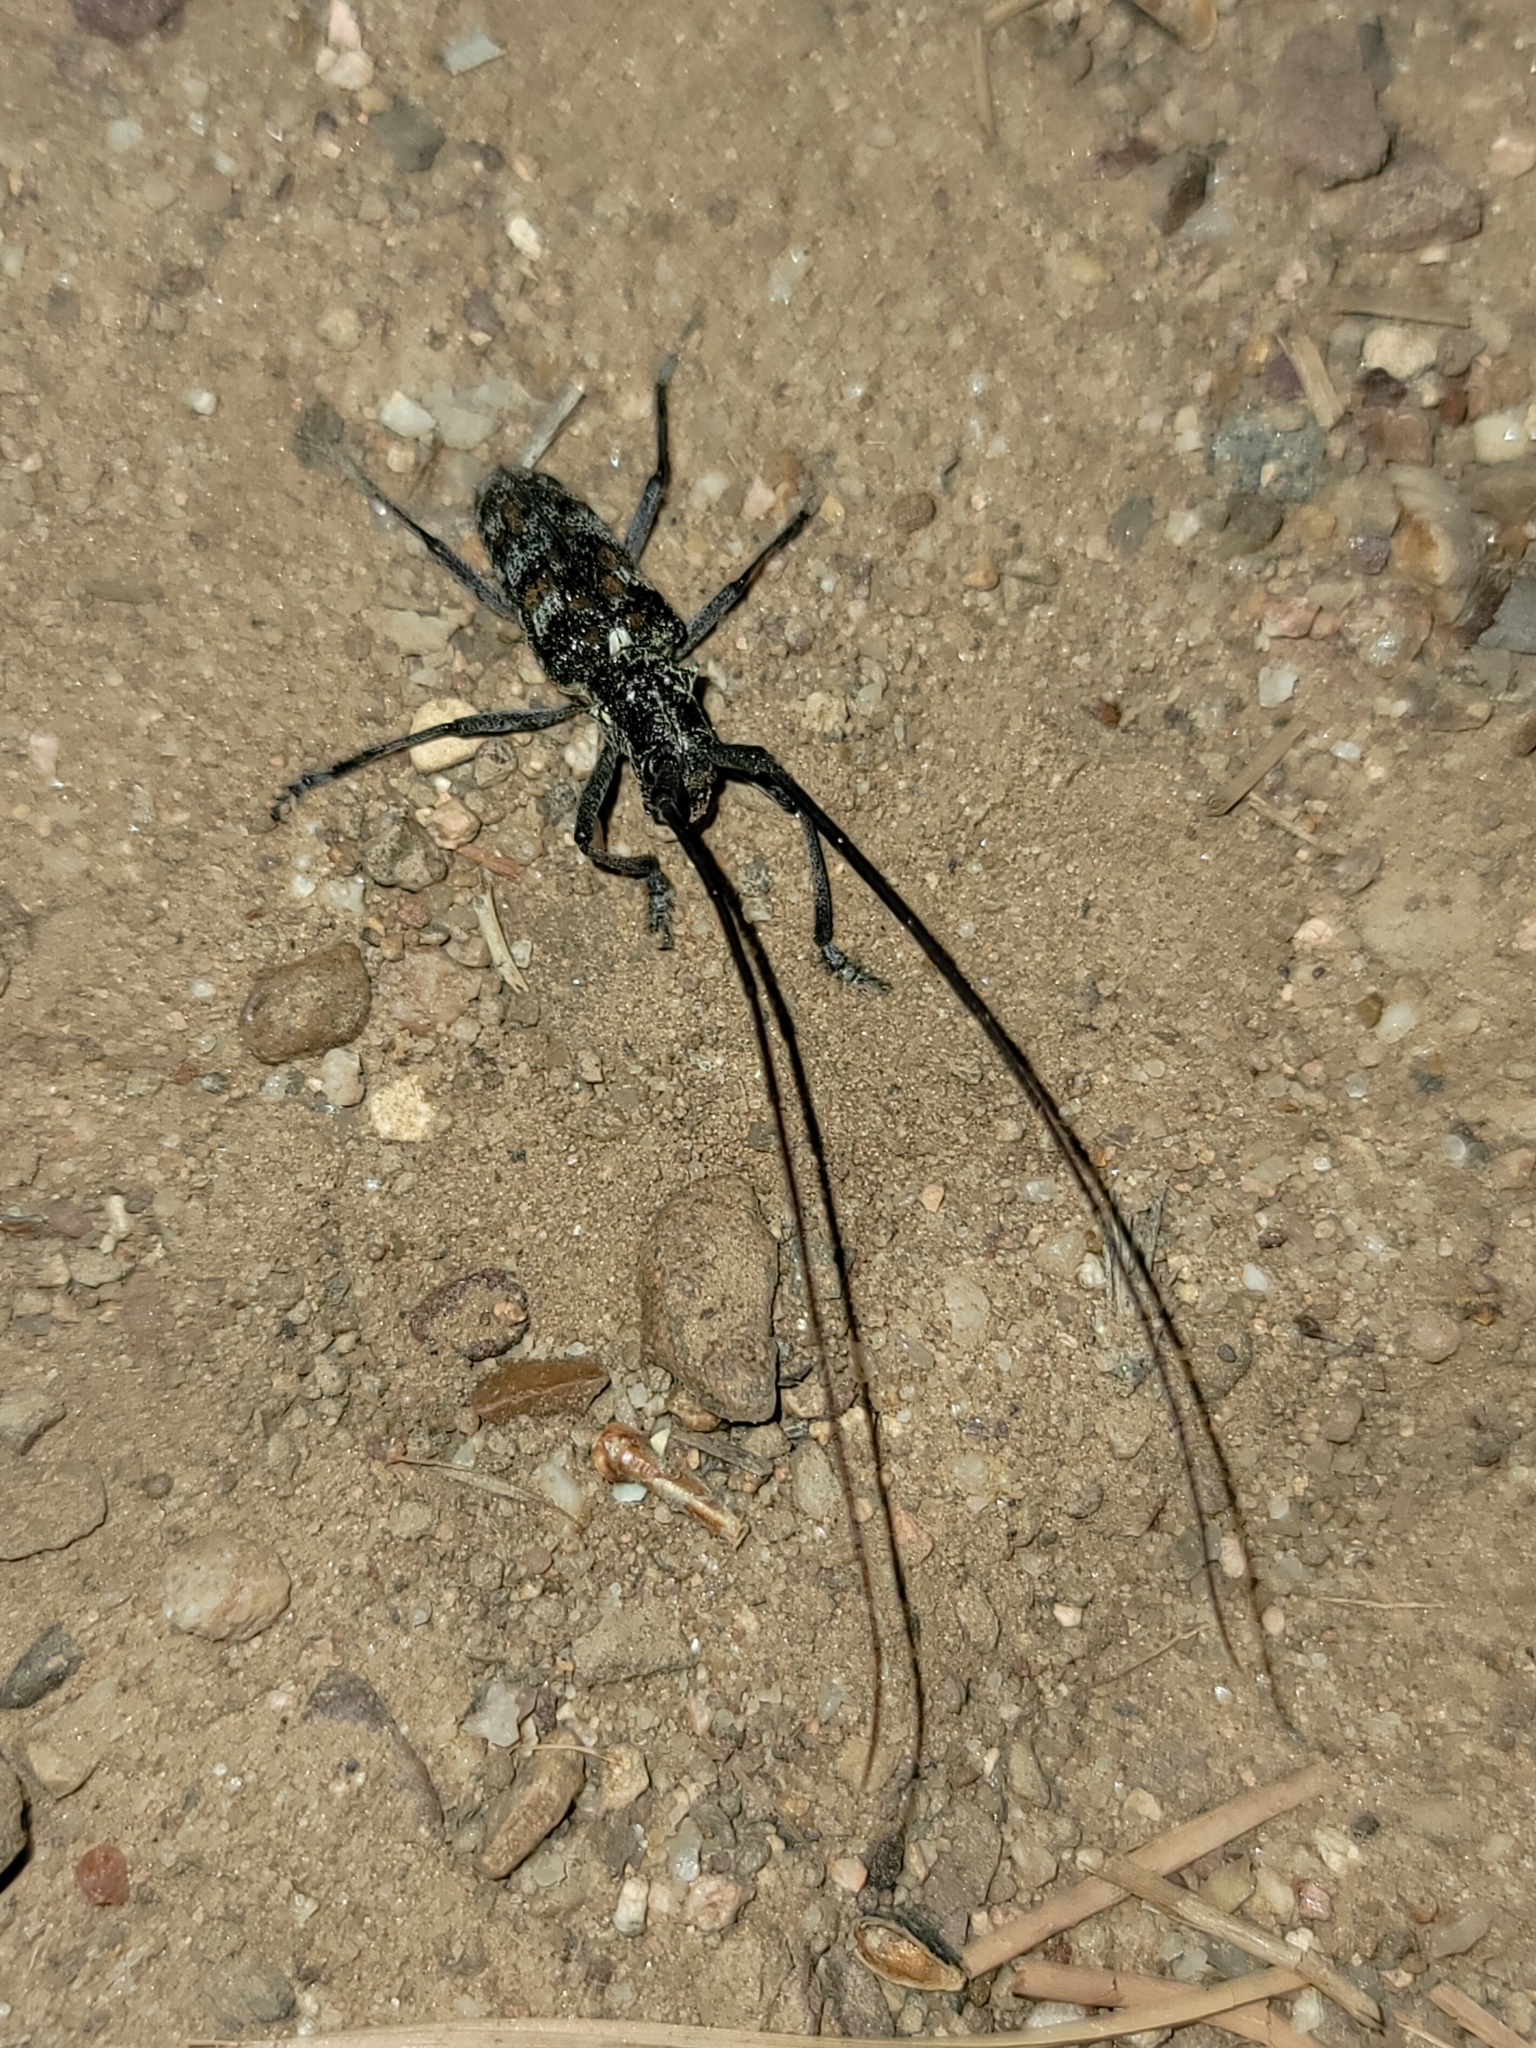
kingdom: Animalia
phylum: Arthropoda
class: Insecta
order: Coleoptera
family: Cerambycidae
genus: Monochamus
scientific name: Monochamus clamator
